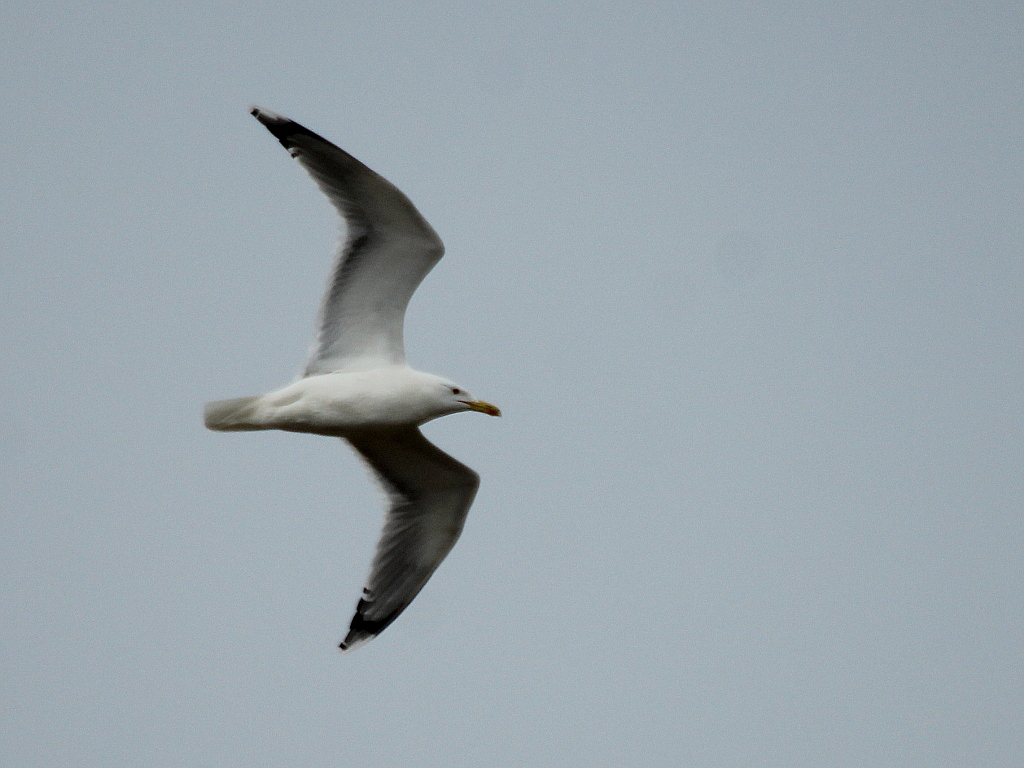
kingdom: Animalia
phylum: Chordata
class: Aves
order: Charadriiformes
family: Laridae
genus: Larus
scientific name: Larus cachinnans
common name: Caspian gull
